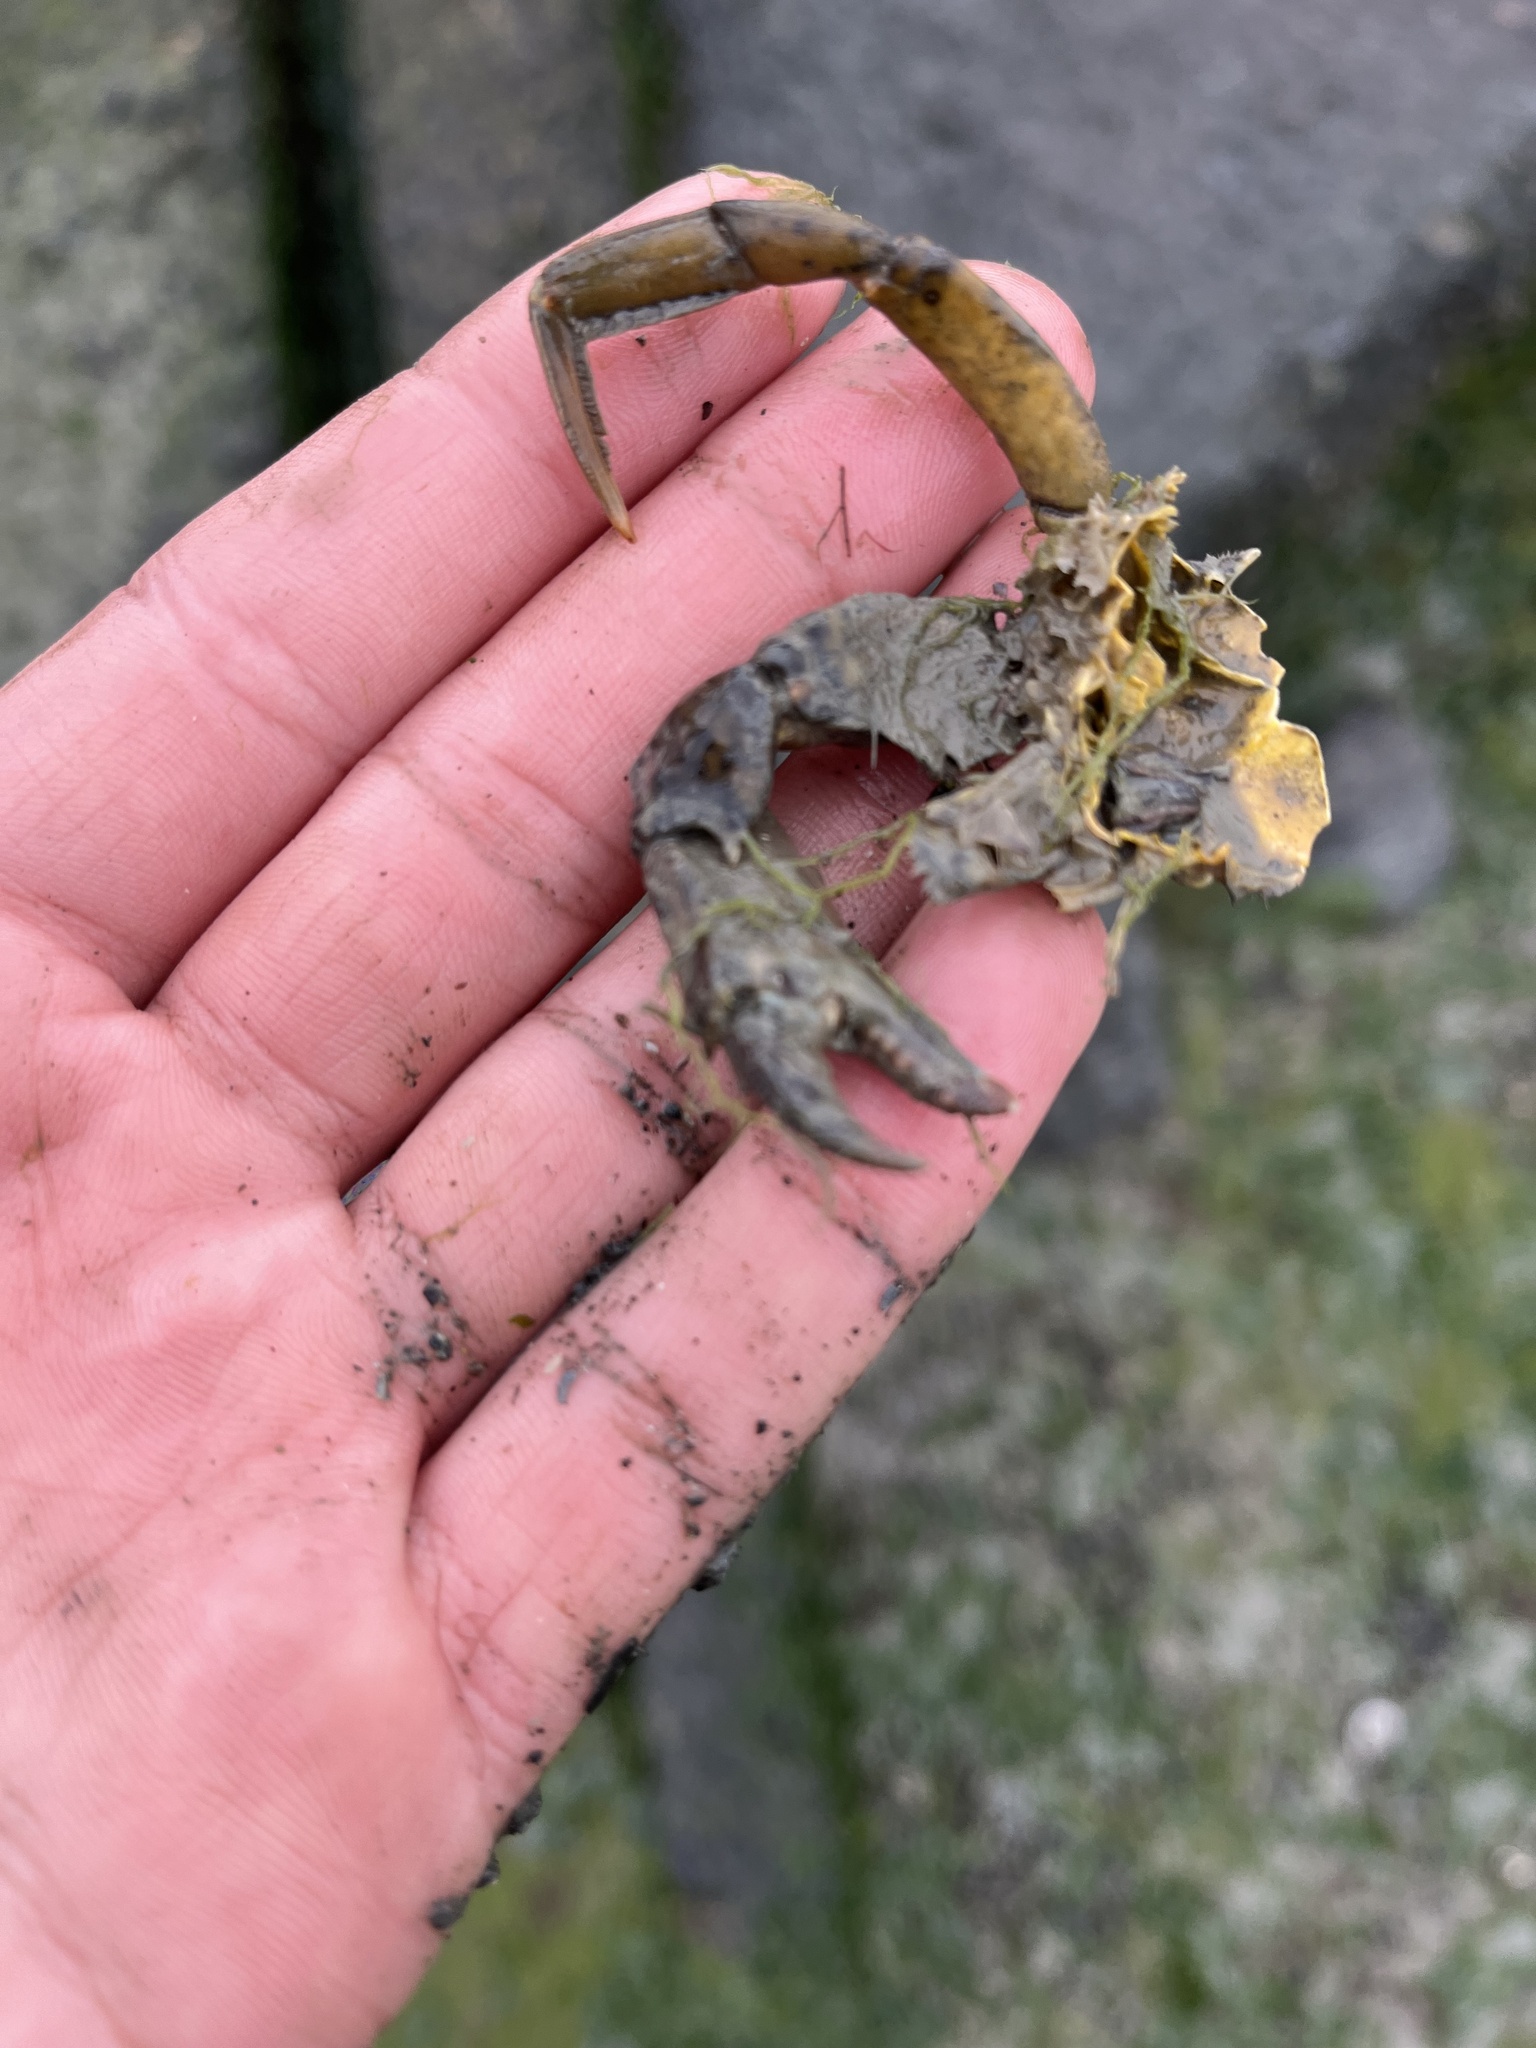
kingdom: Animalia
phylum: Arthropoda
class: Malacostraca
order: Decapoda
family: Carcinidae
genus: Carcinus
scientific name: Carcinus maenas
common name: European green crab
